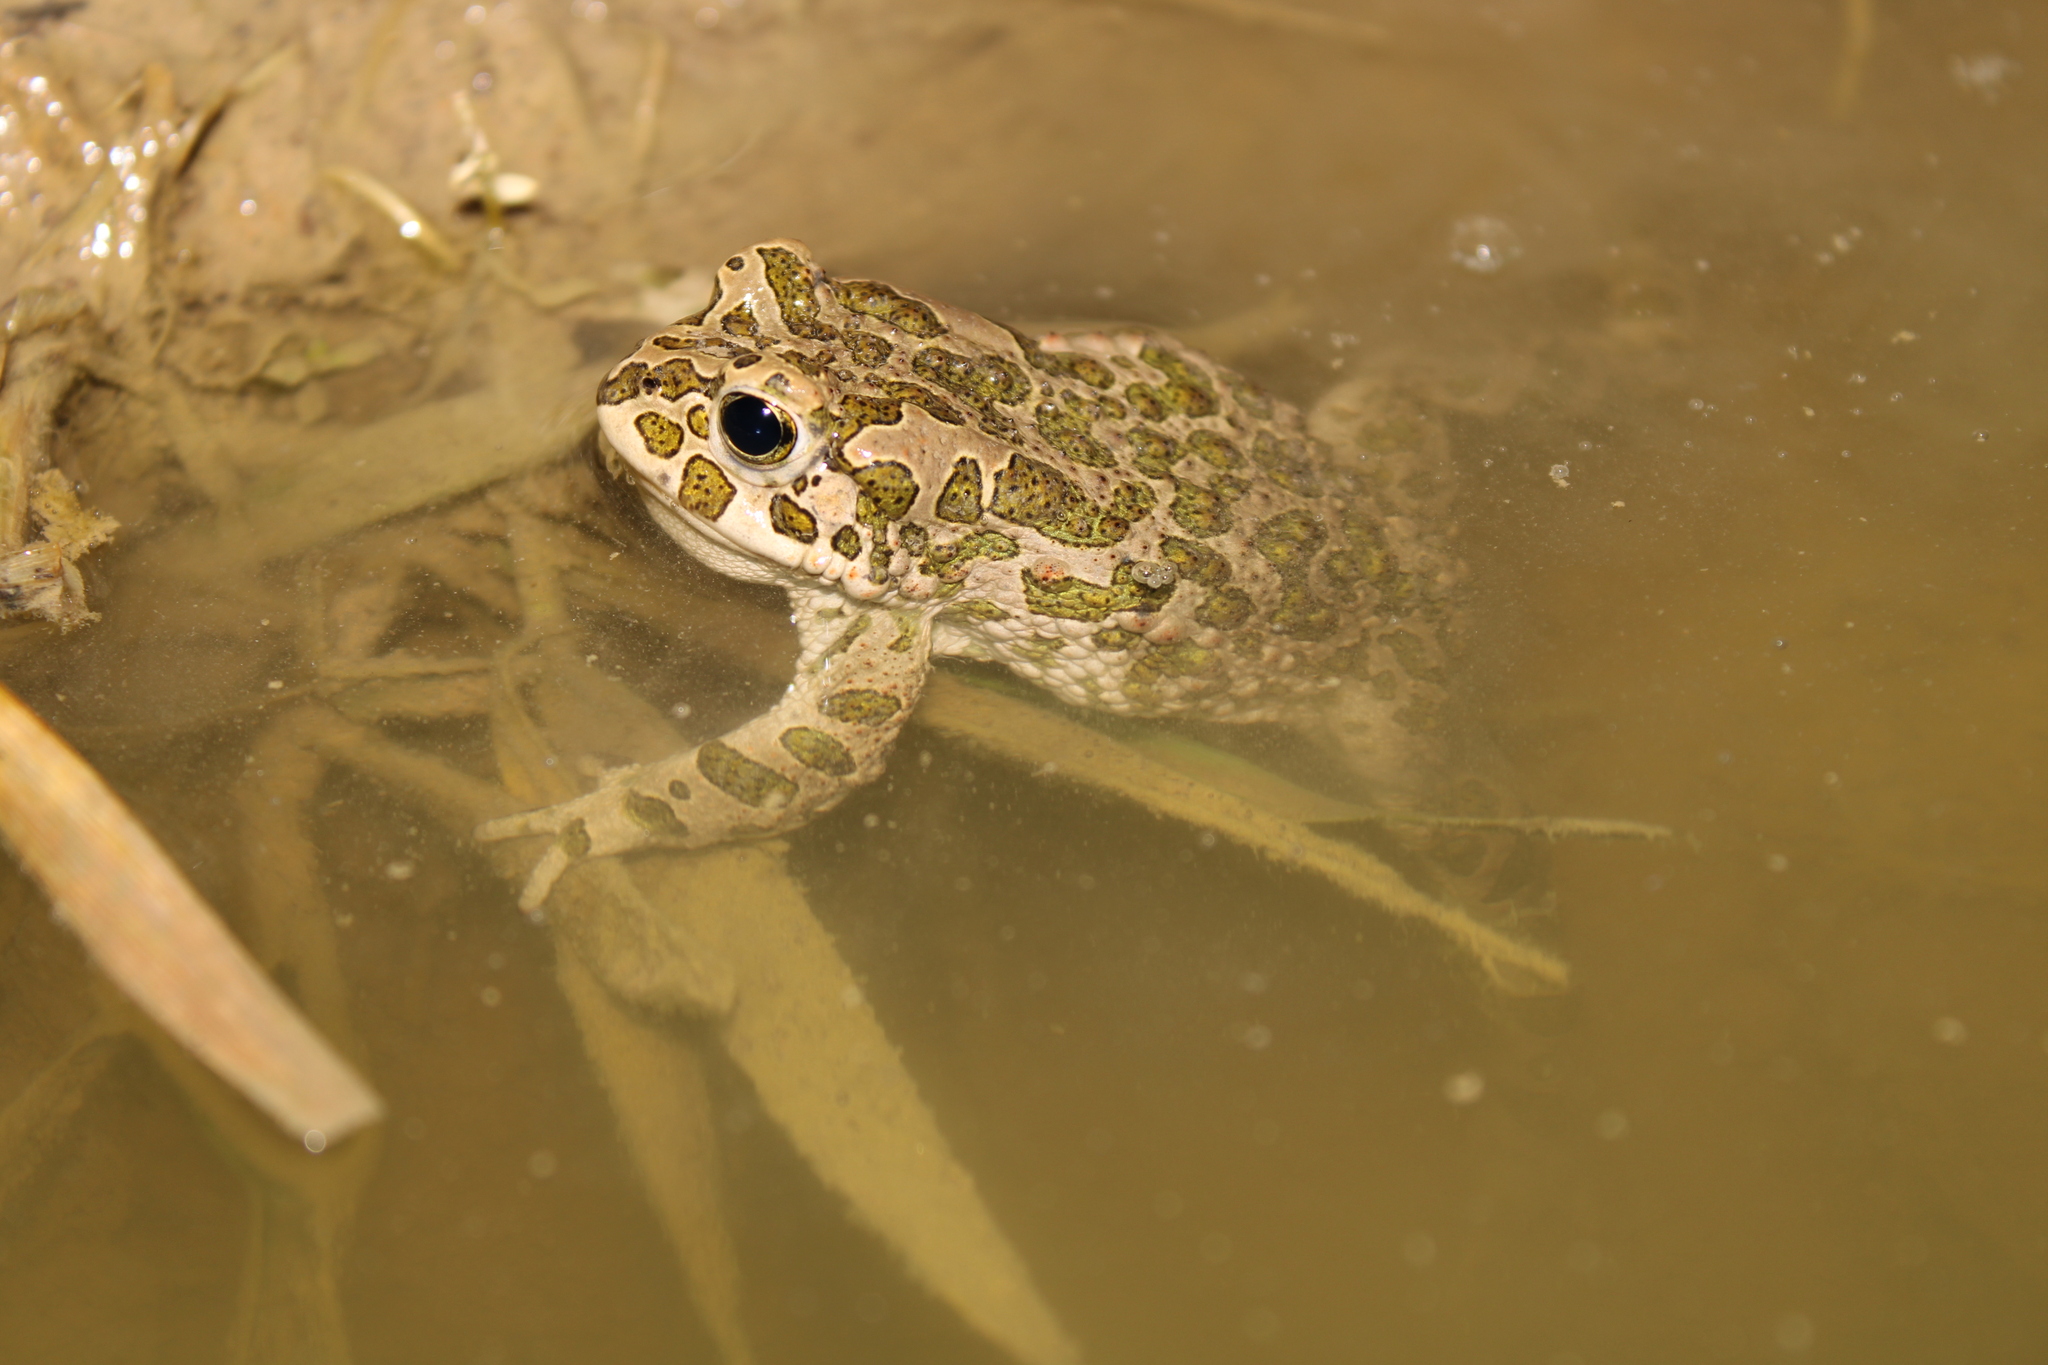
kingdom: Animalia
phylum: Chordata
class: Amphibia
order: Anura
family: Bufonidae
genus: Bufotes
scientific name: Bufotes viridis
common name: European green toad
